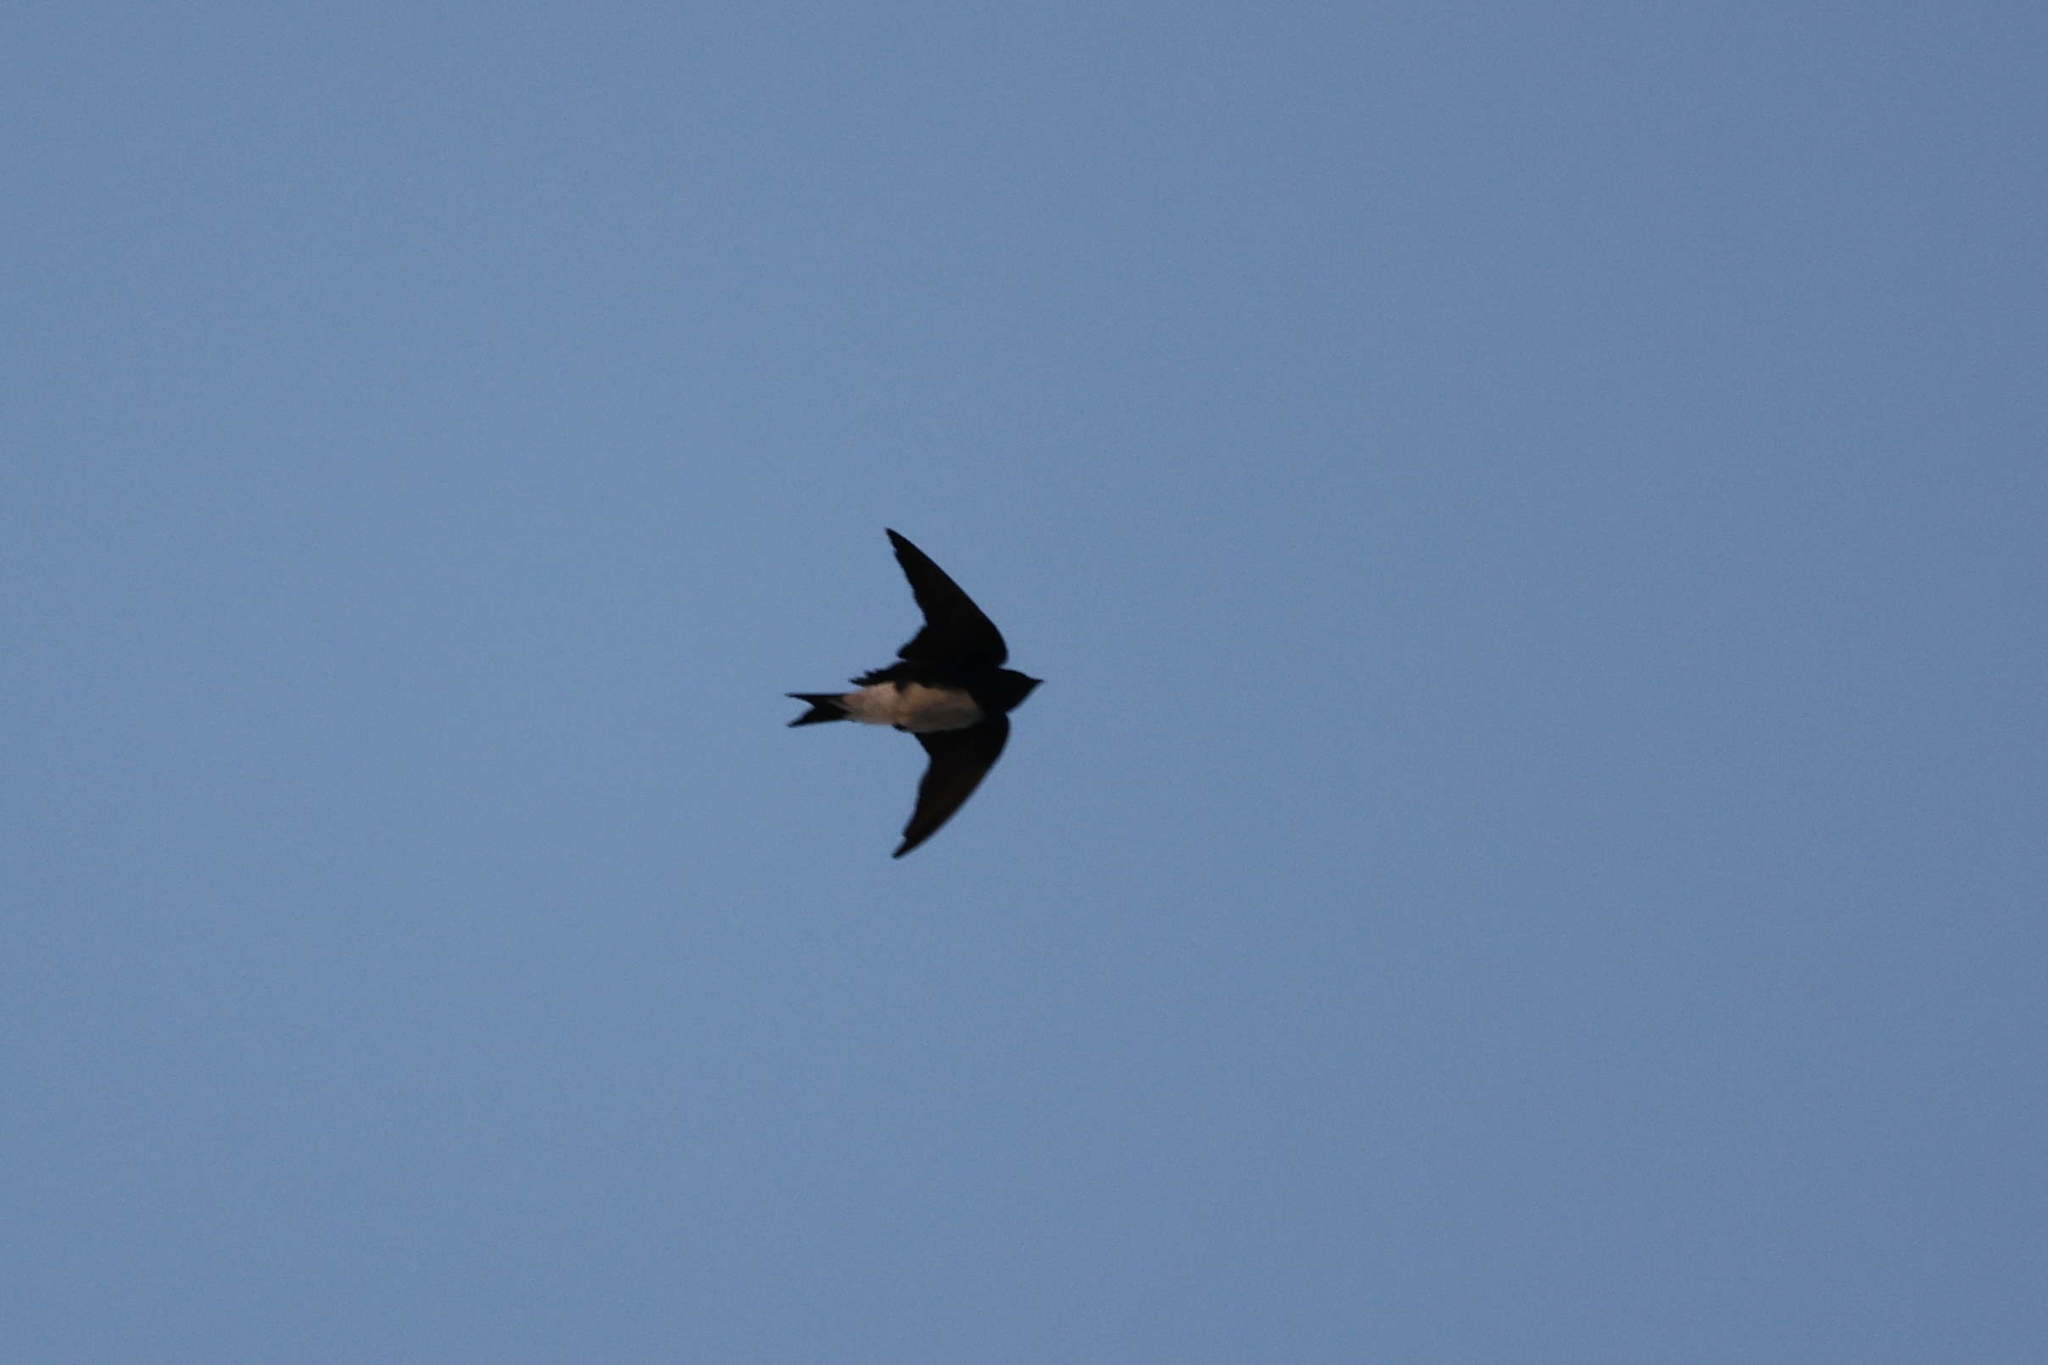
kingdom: Animalia
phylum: Chordata
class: Aves
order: Passeriformes
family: Hirundinidae
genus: Progne
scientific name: Progne dominicensis
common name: Caribbean martin
